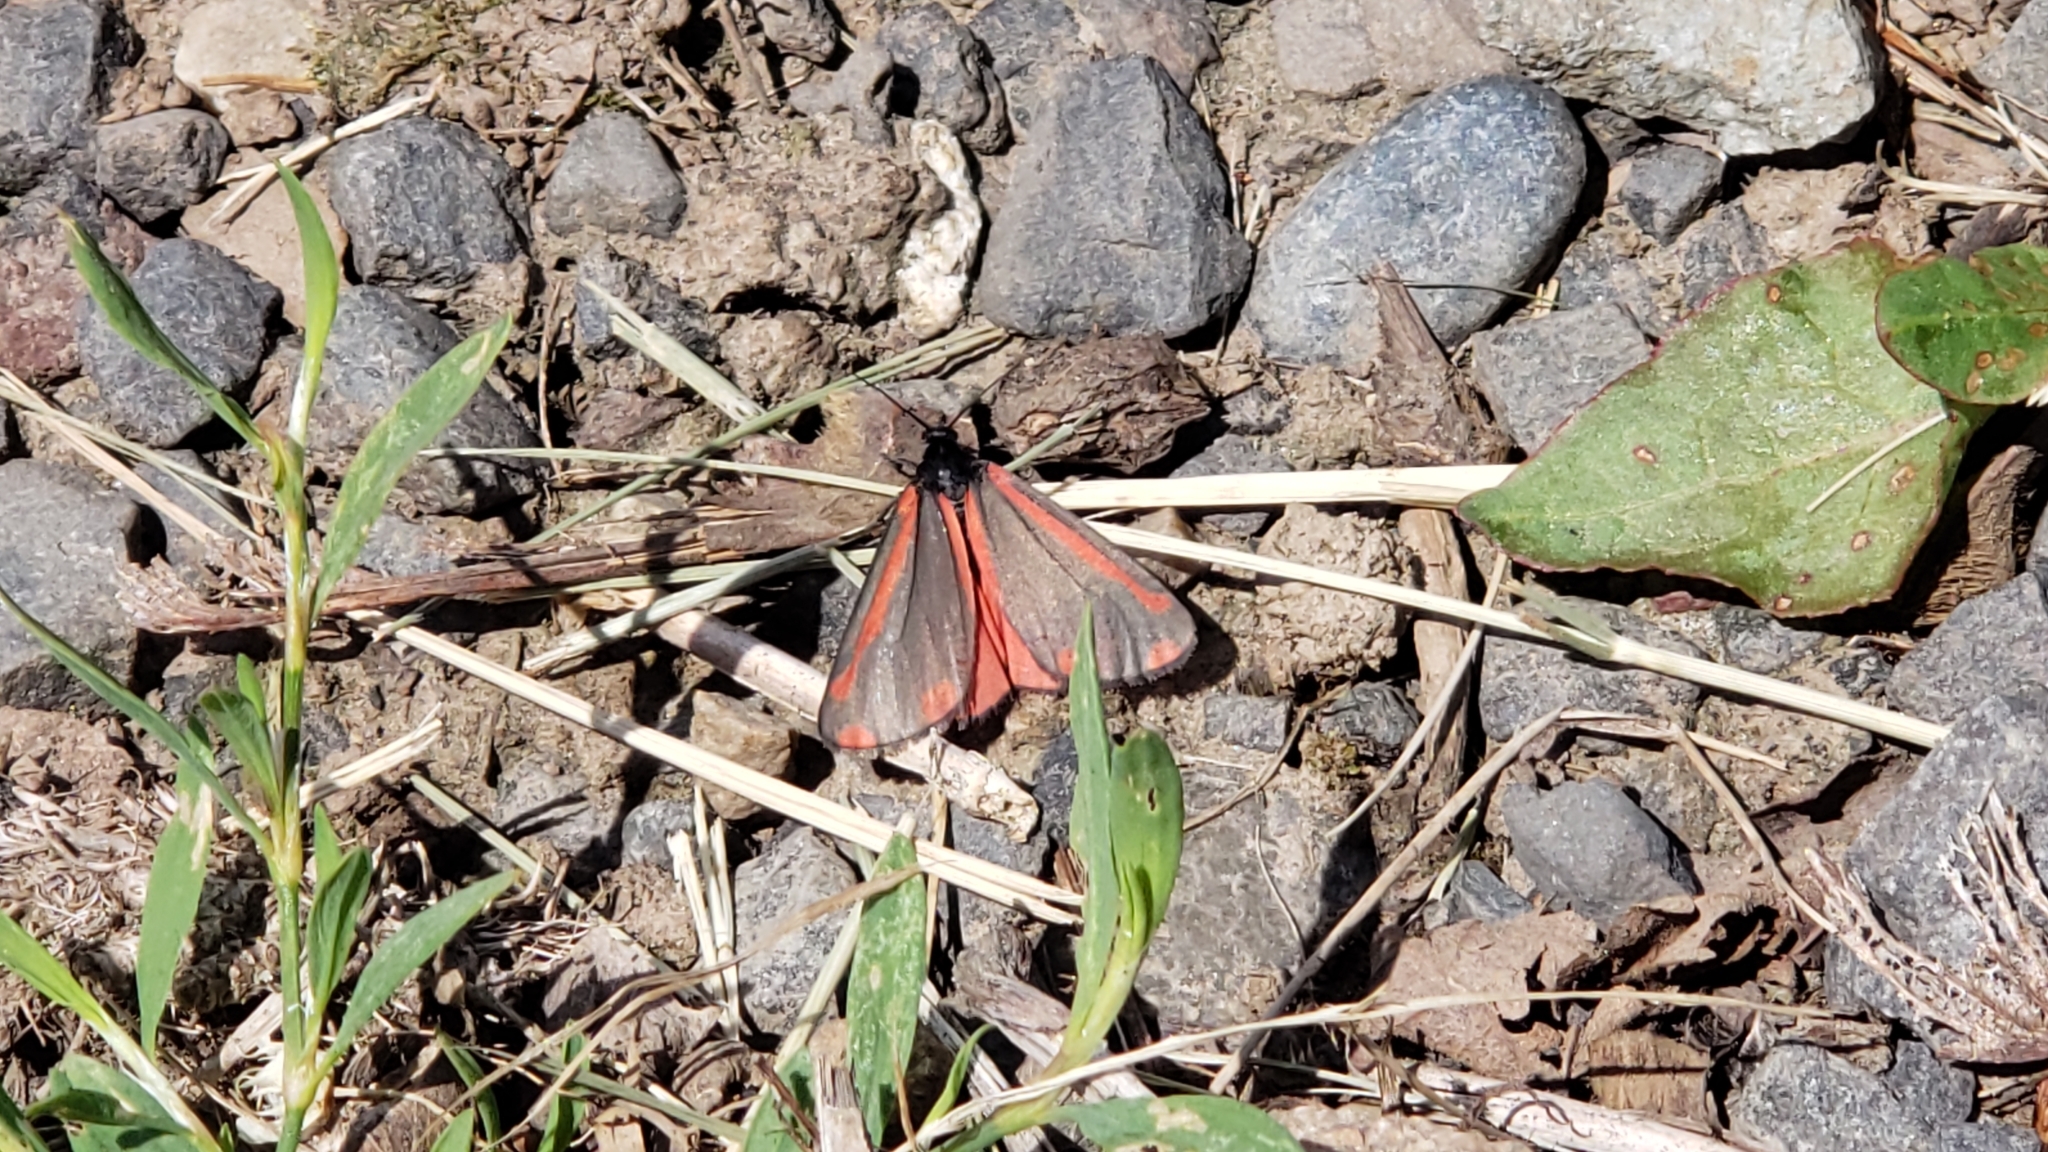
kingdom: Animalia
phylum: Arthropoda
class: Insecta
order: Lepidoptera
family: Erebidae
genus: Tyria
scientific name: Tyria jacobaeae
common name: Cinnabar
